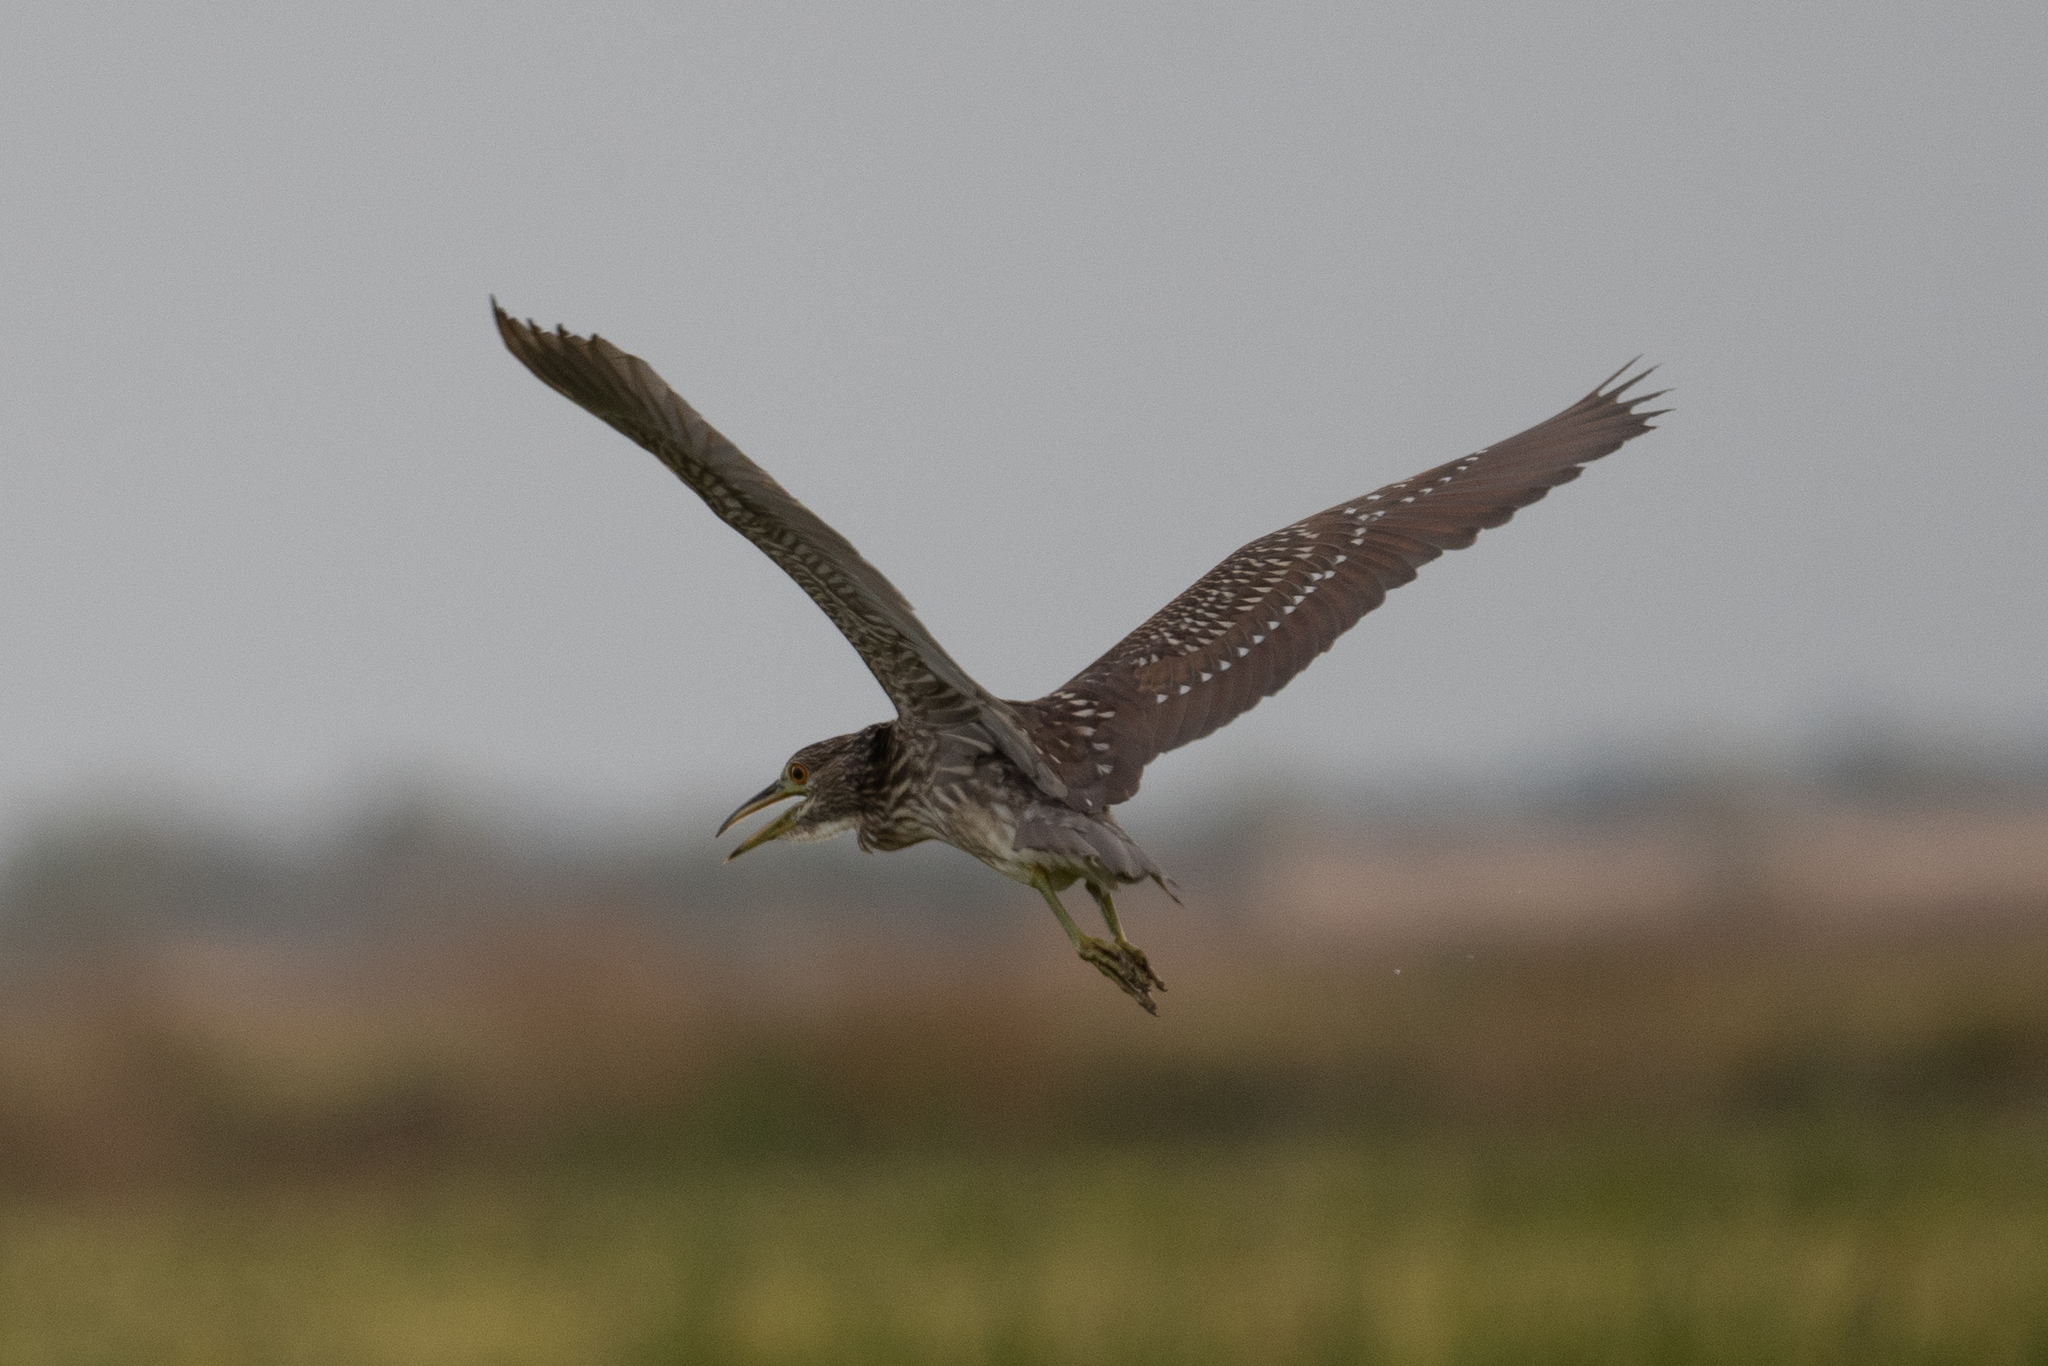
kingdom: Animalia
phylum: Chordata
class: Aves
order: Pelecaniformes
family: Ardeidae
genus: Nycticorax
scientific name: Nycticorax nycticorax
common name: Black-crowned night heron
